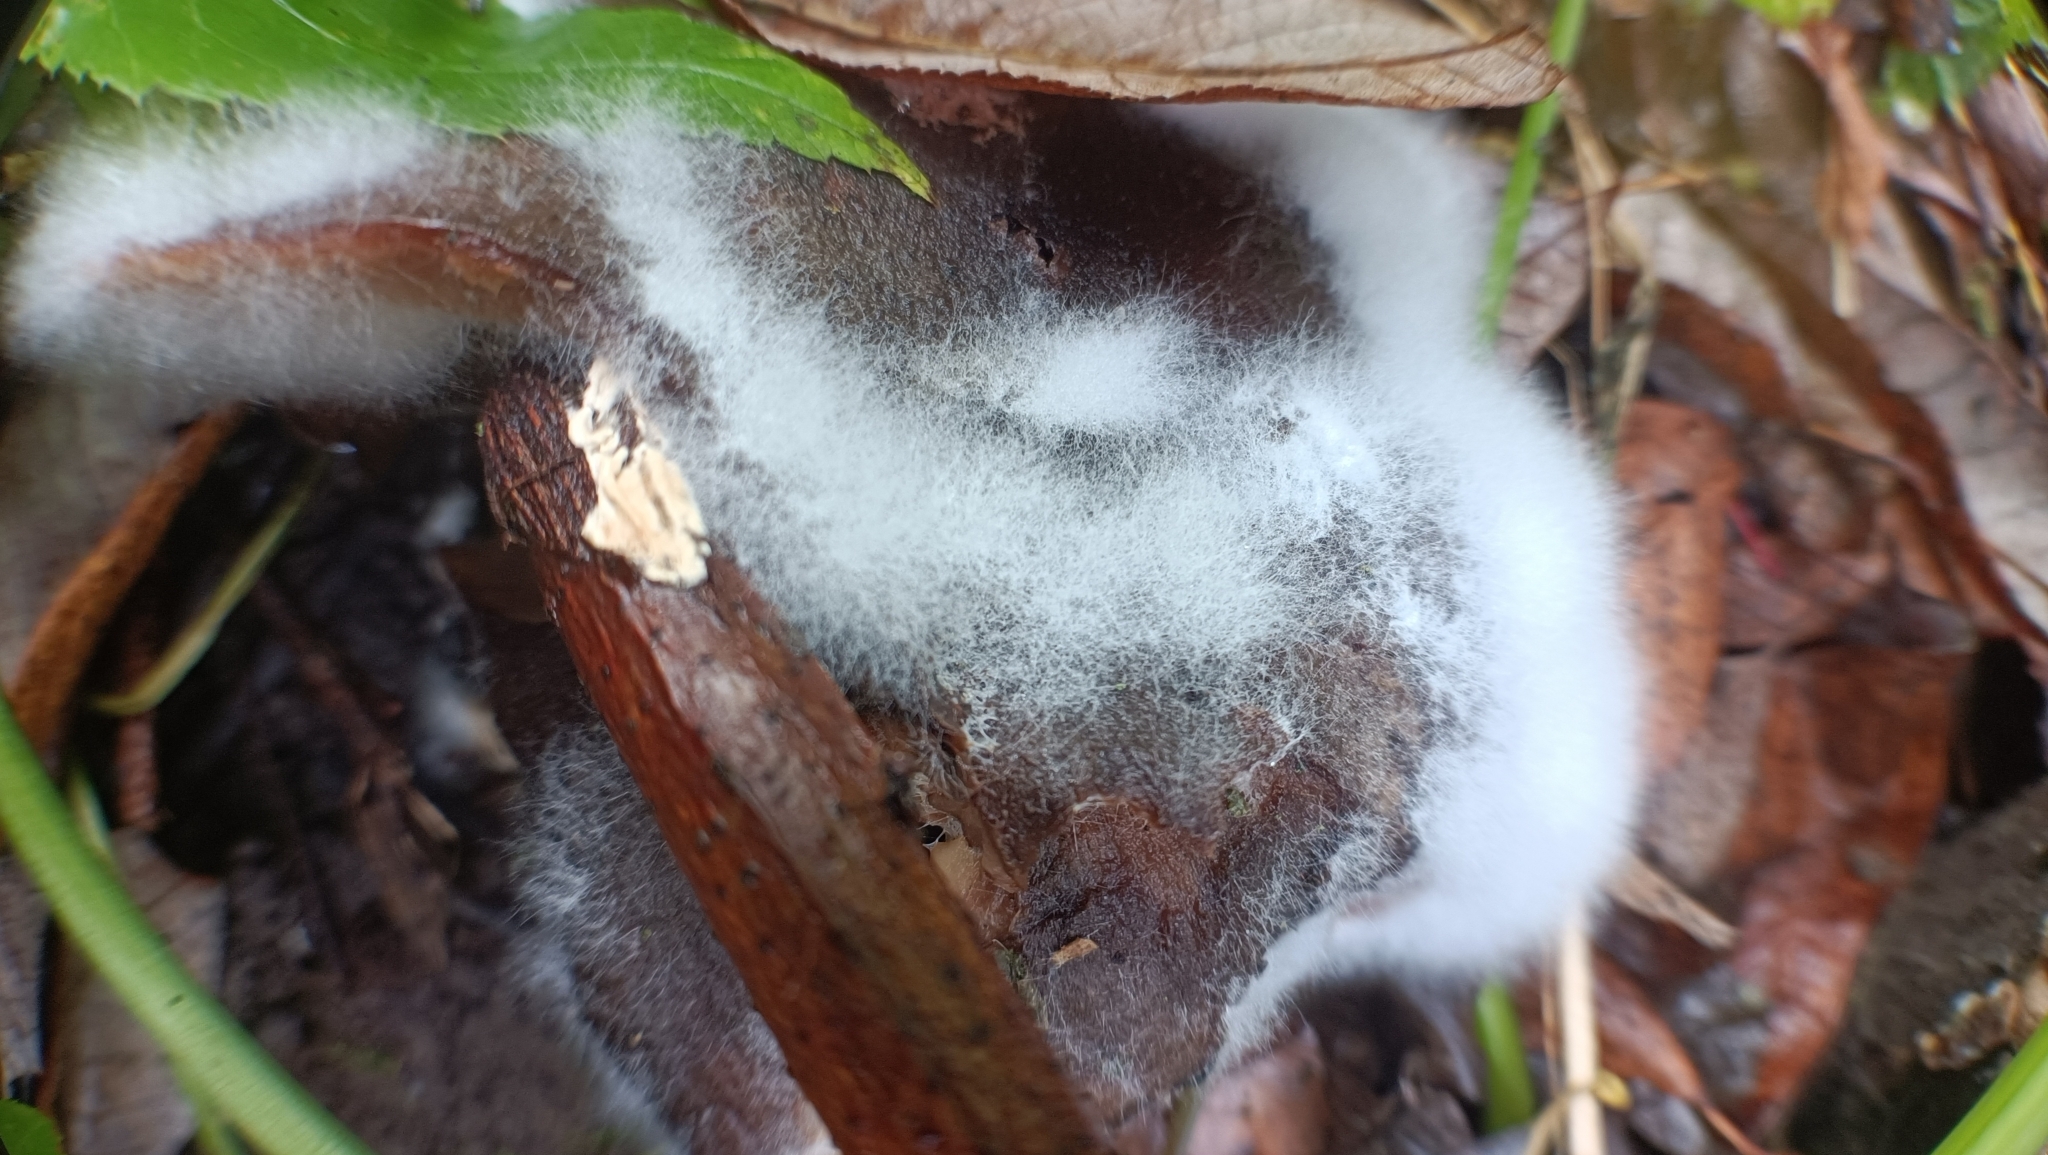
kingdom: Fungi
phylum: Mucoromycota
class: Mucoromycetes
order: Mucorales
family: Rhizopodaceae
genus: Syzygites
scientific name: Syzygites megalocarpus
